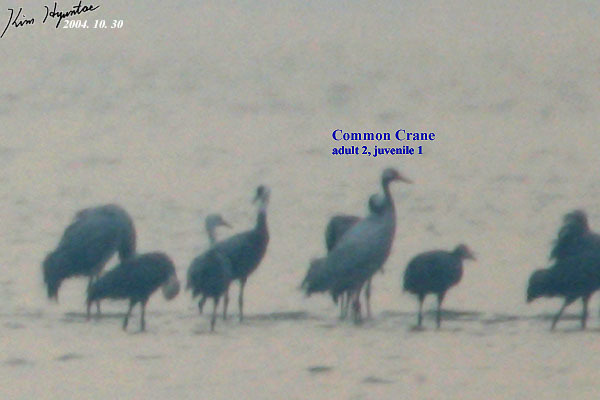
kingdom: Animalia
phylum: Chordata
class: Aves
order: Gruiformes
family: Gruidae
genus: Grus
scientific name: Grus grus
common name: Common crane
